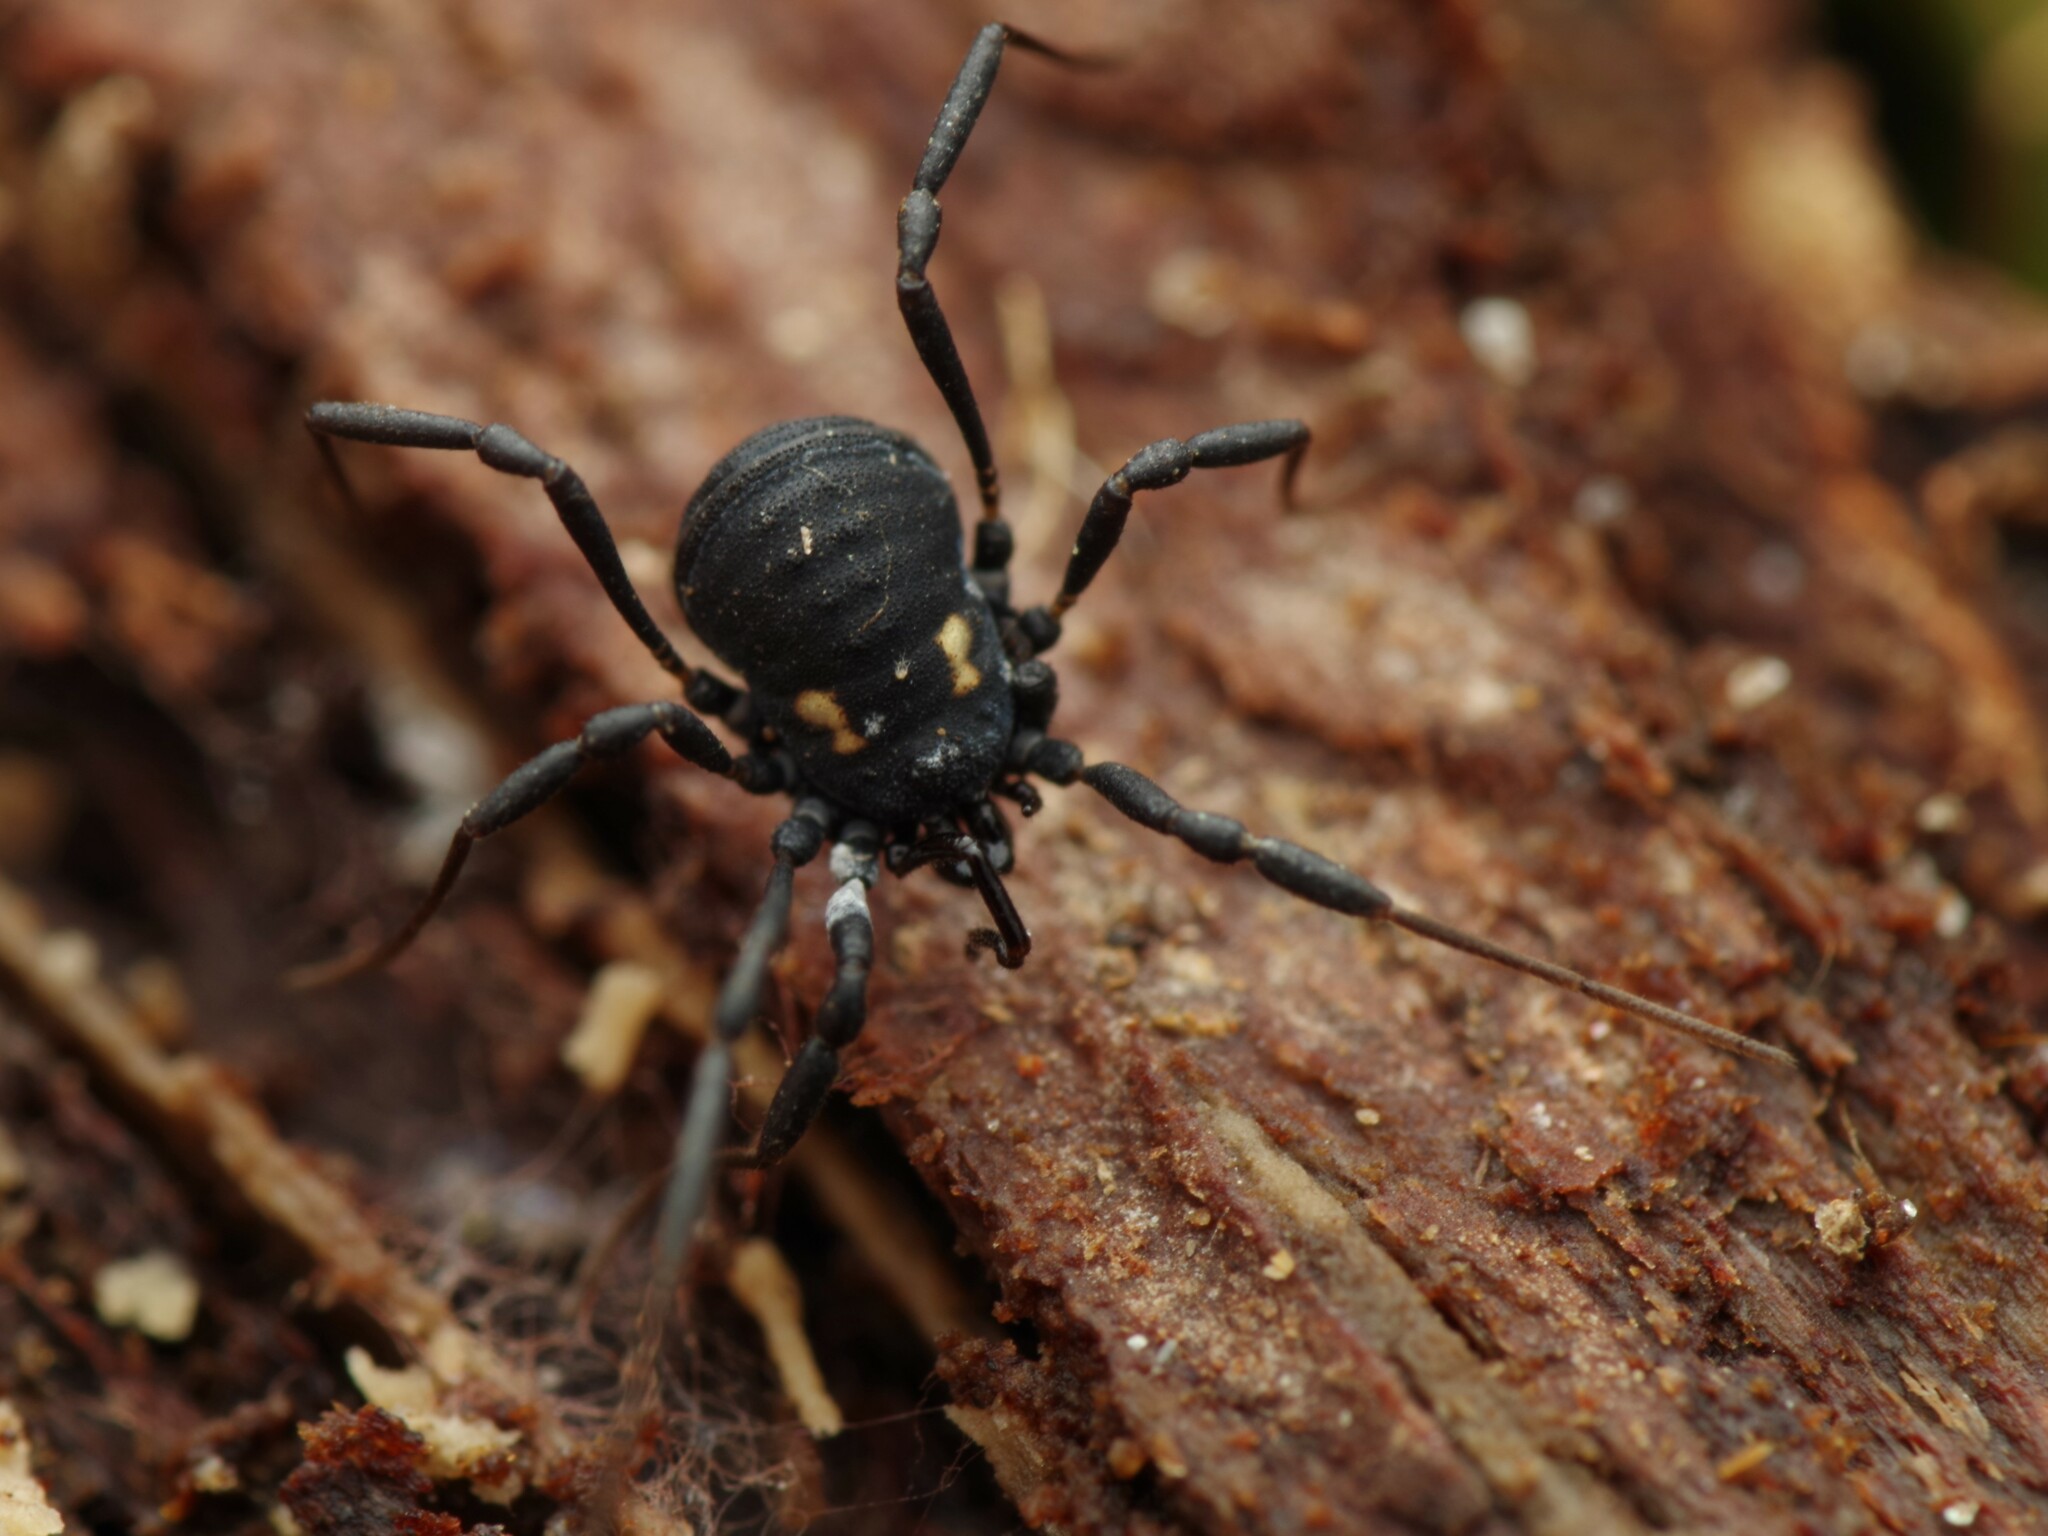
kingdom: Animalia
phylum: Arthropoda
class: Arachnida
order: Opiliones
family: Nemastomatidae
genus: Nemastoma
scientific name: Nemastoma bimaculatum
